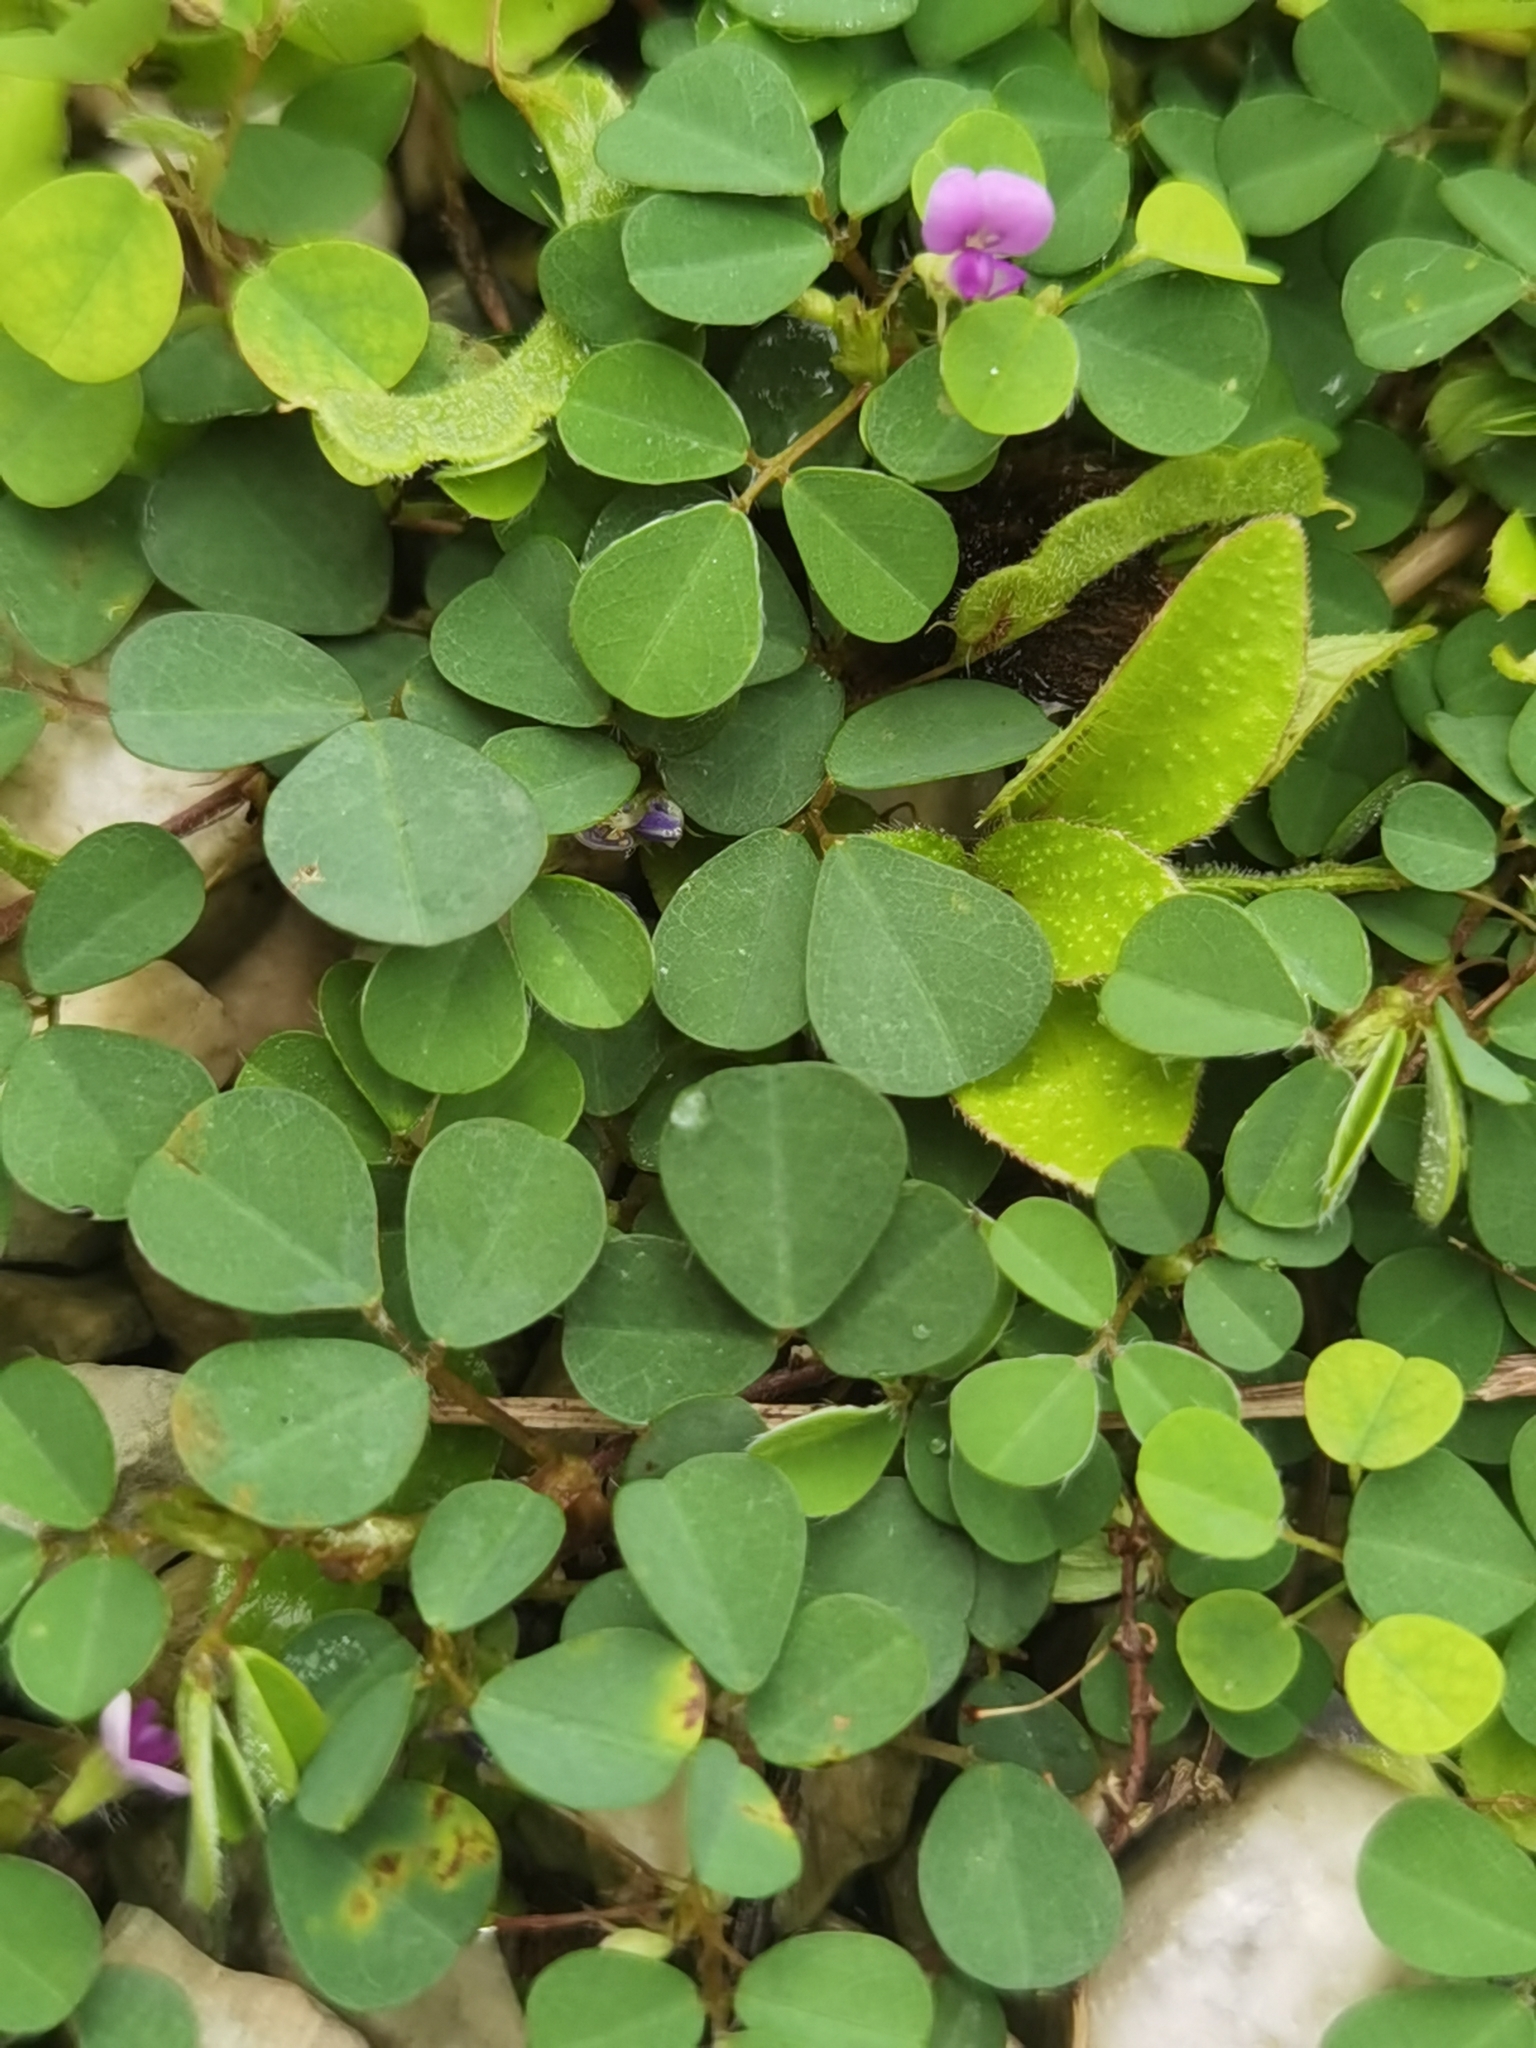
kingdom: Plantae
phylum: Tracheophyta
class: Magnoliopsida
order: Fabales
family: Fabaceae
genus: Grona
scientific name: Grona triflora
